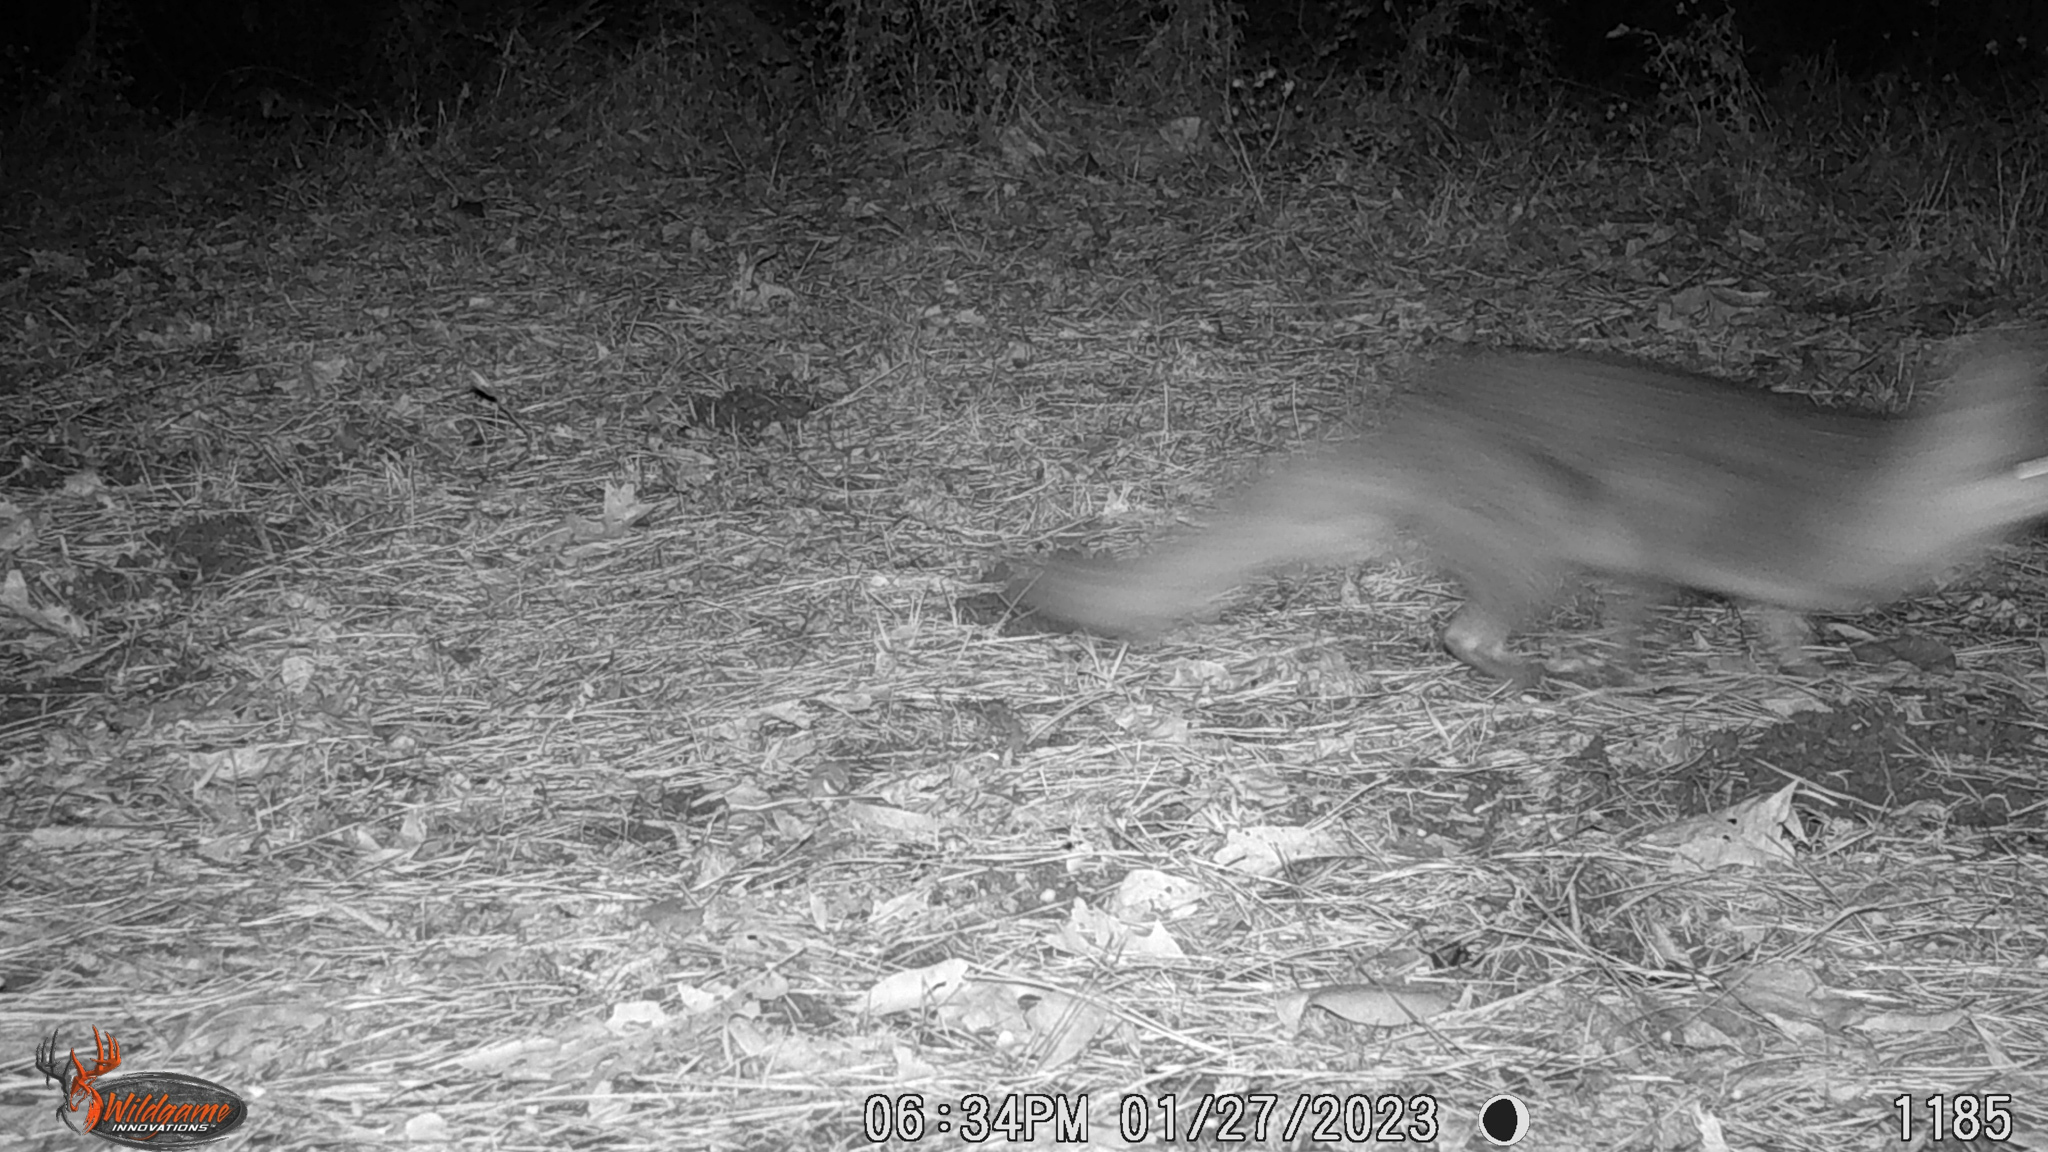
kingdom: Animalia
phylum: Chordata
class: Mammalia
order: Carnivora
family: Canidae
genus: Urocyon
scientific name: Urocyon cinereoargenteus
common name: Gray fox
